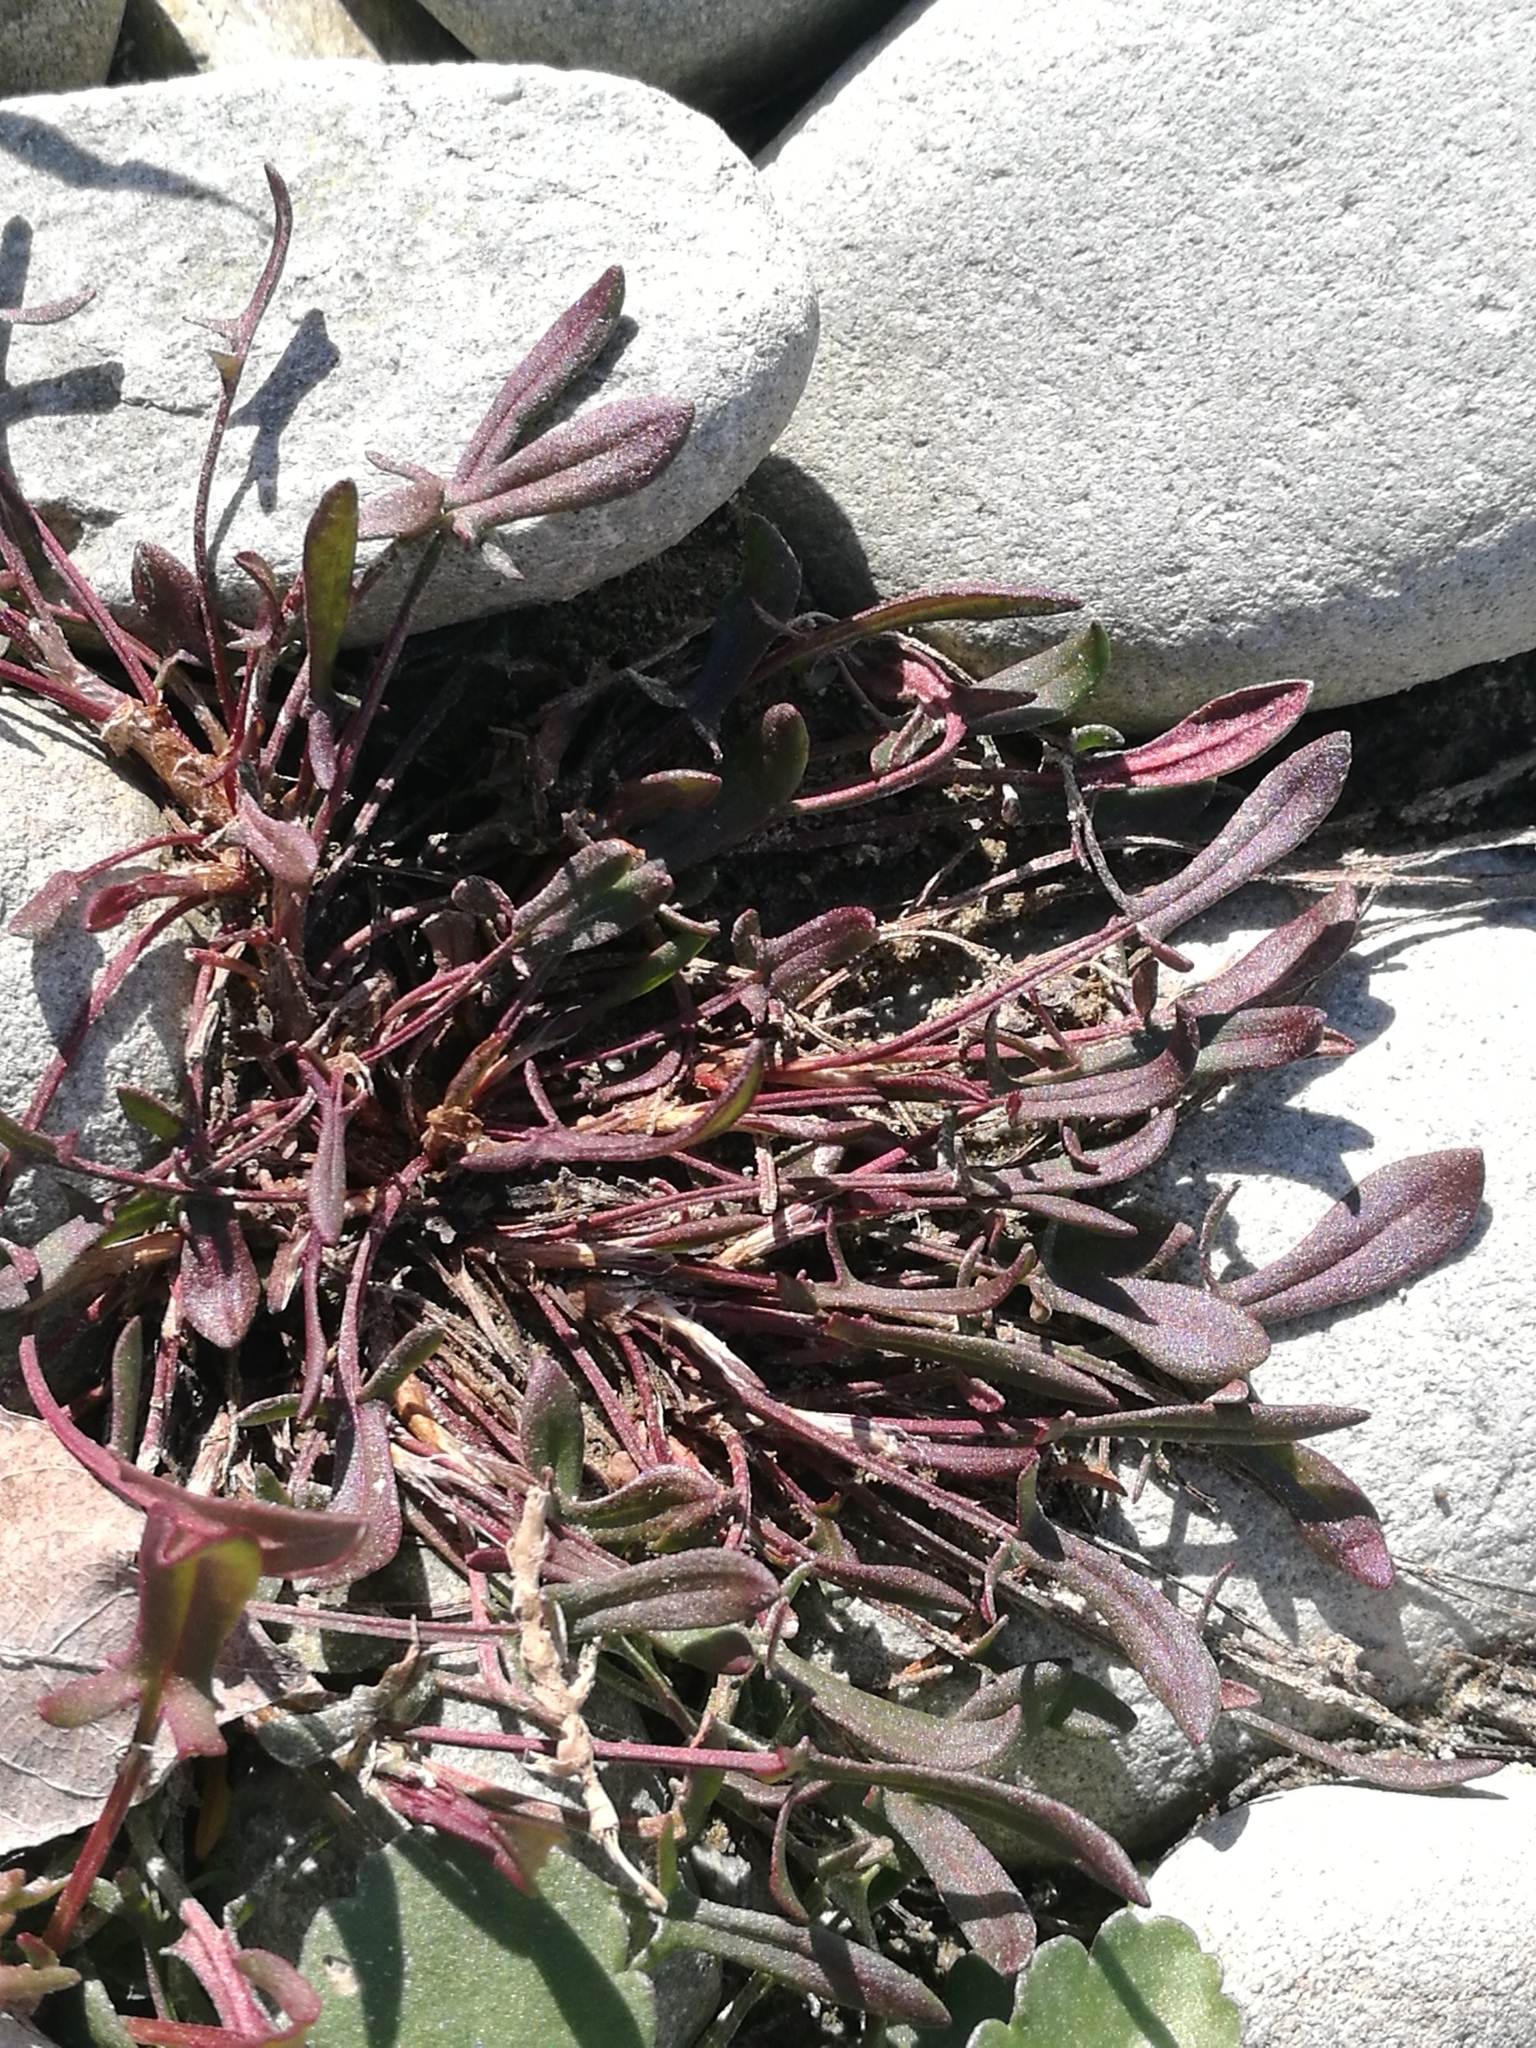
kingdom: Plantae
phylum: Tracheophyta
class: Magnoliopsida
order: Caryophyllales
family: Polygonaceae
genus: Rumex
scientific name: Rumex acetosella
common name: Common sheep sorrel
